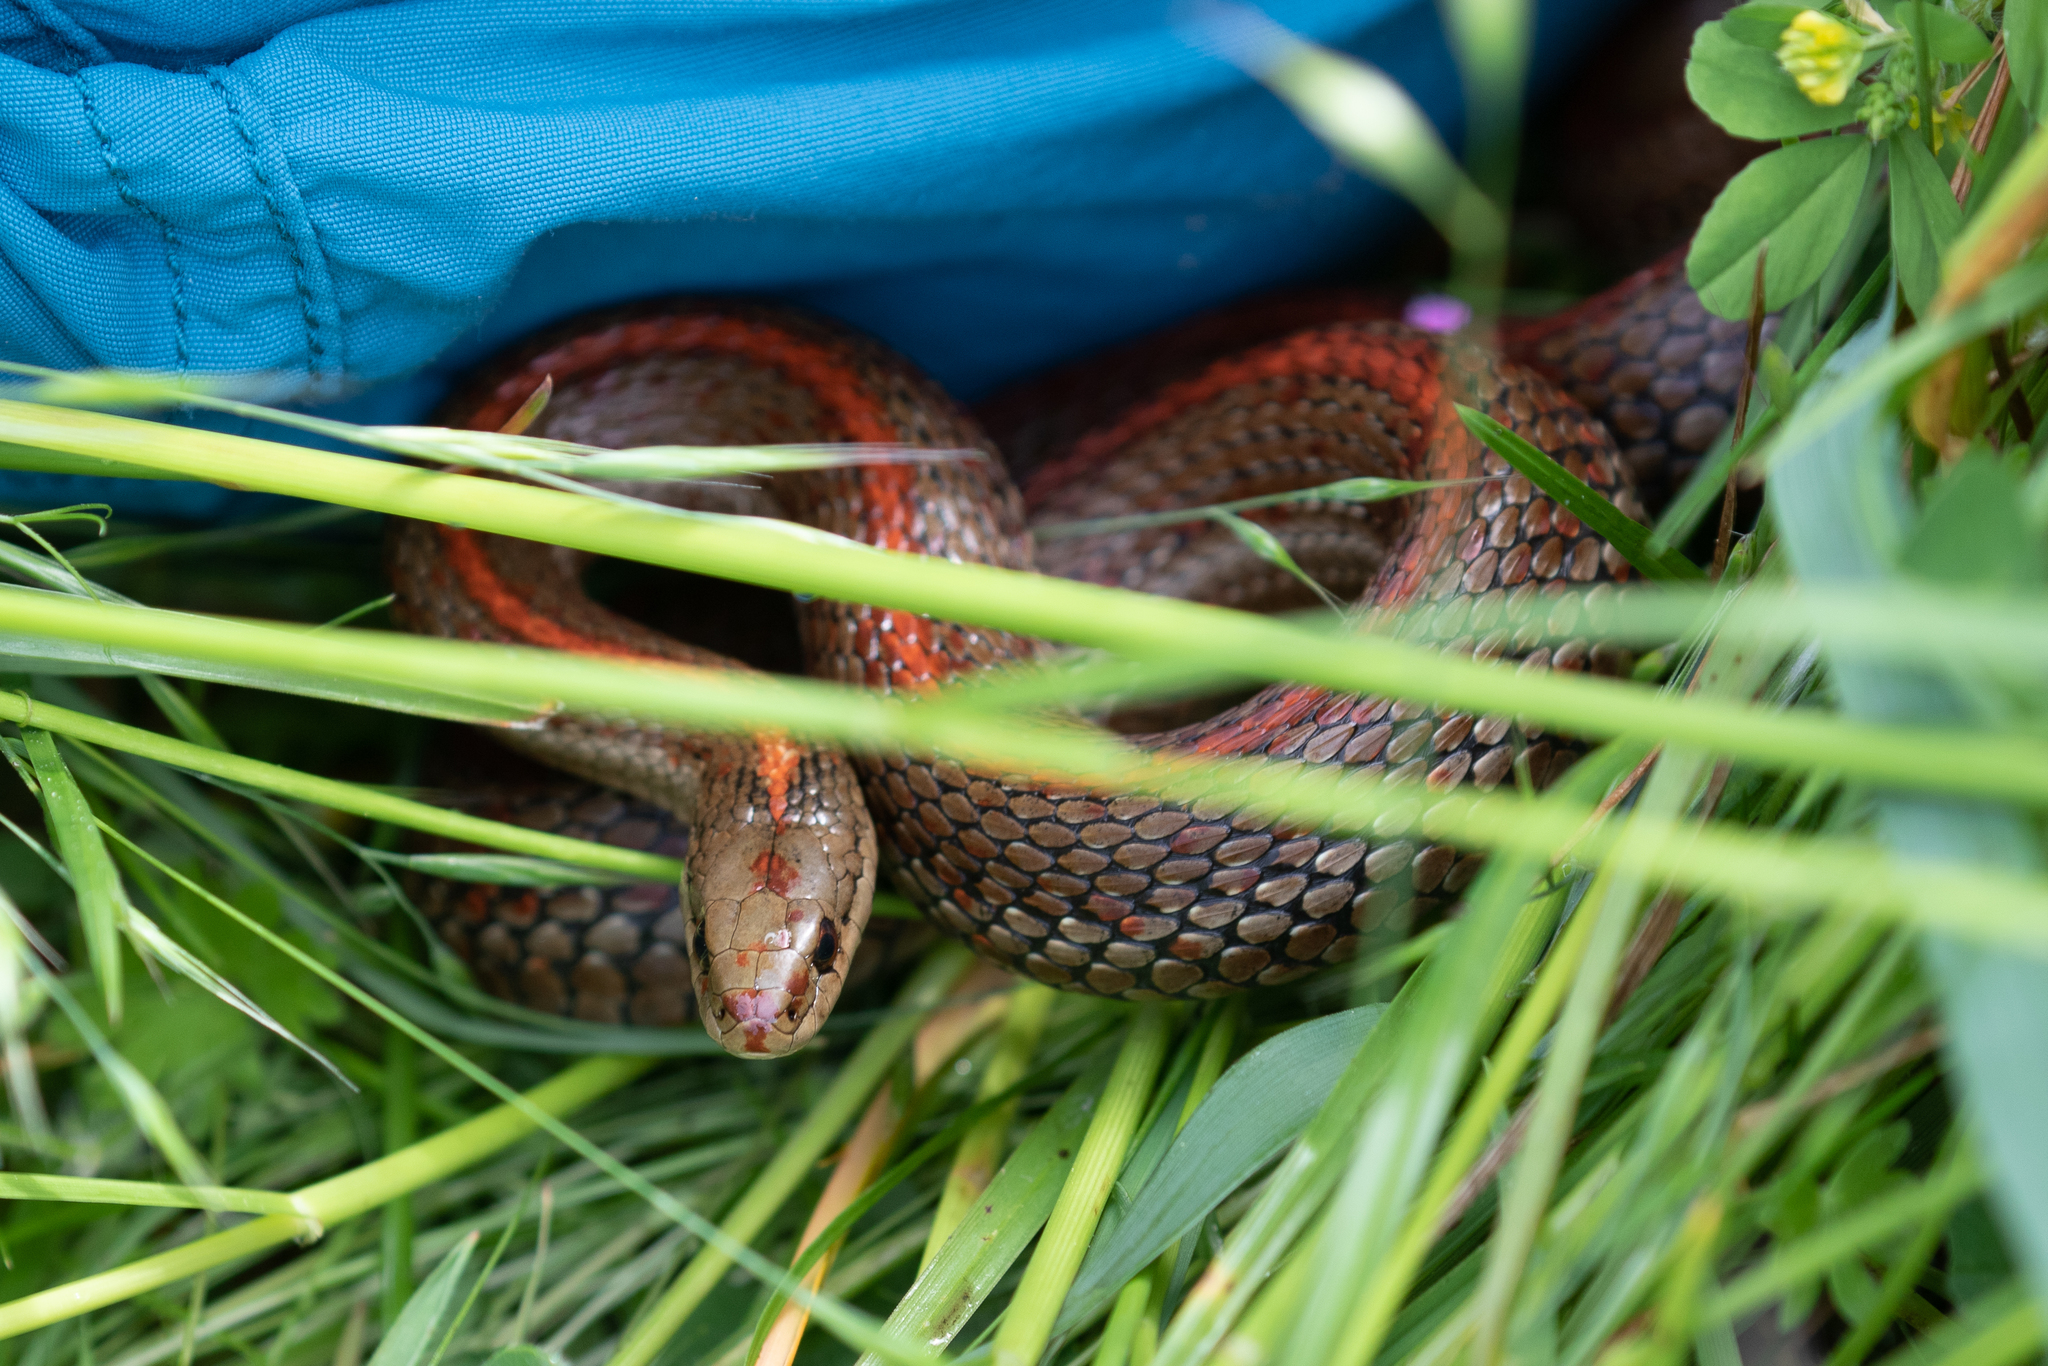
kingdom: Animalia
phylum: Chordata
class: Squamata
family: Colubridae
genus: Thamnophis
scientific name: Thamnophis ordinoides
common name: Northwestern garter snake
